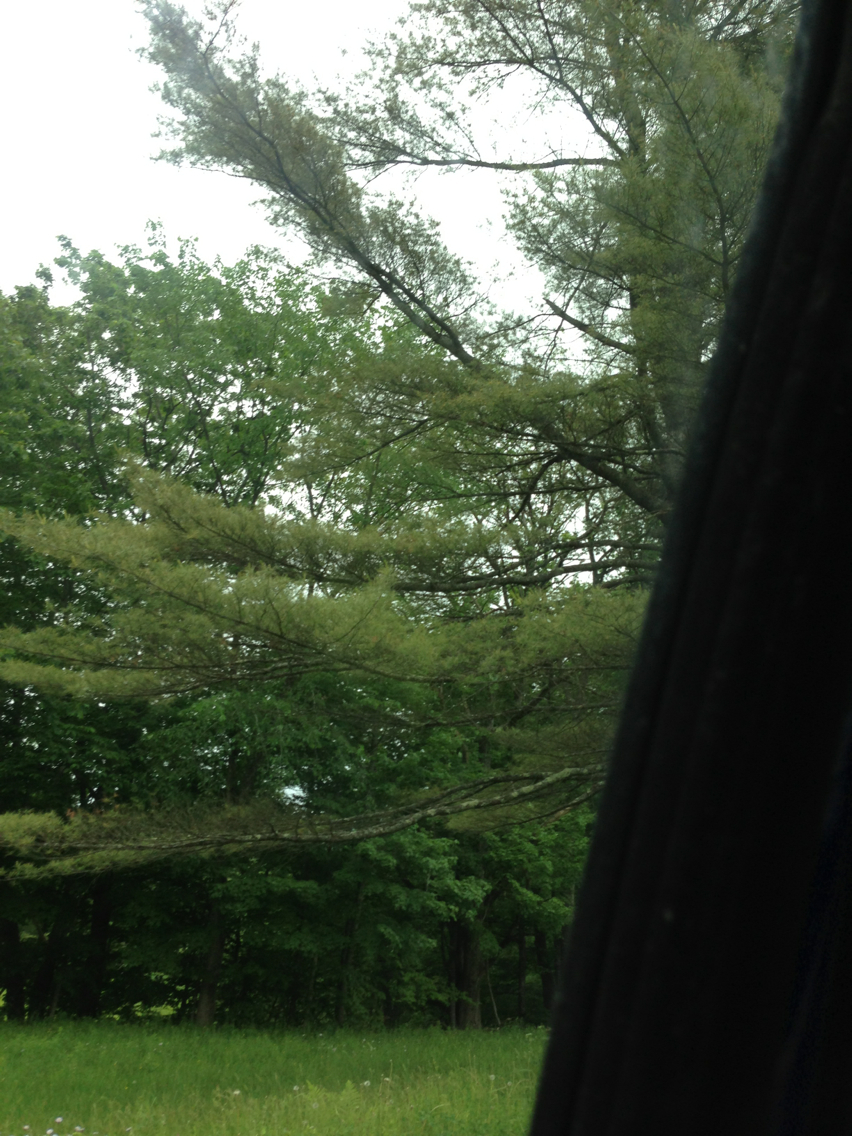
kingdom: Plantae
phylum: Tracheophyta
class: Pinopsida
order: Pinales
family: Pinaceae
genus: Pinus
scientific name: Pinus strobus
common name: Weymouth pine
